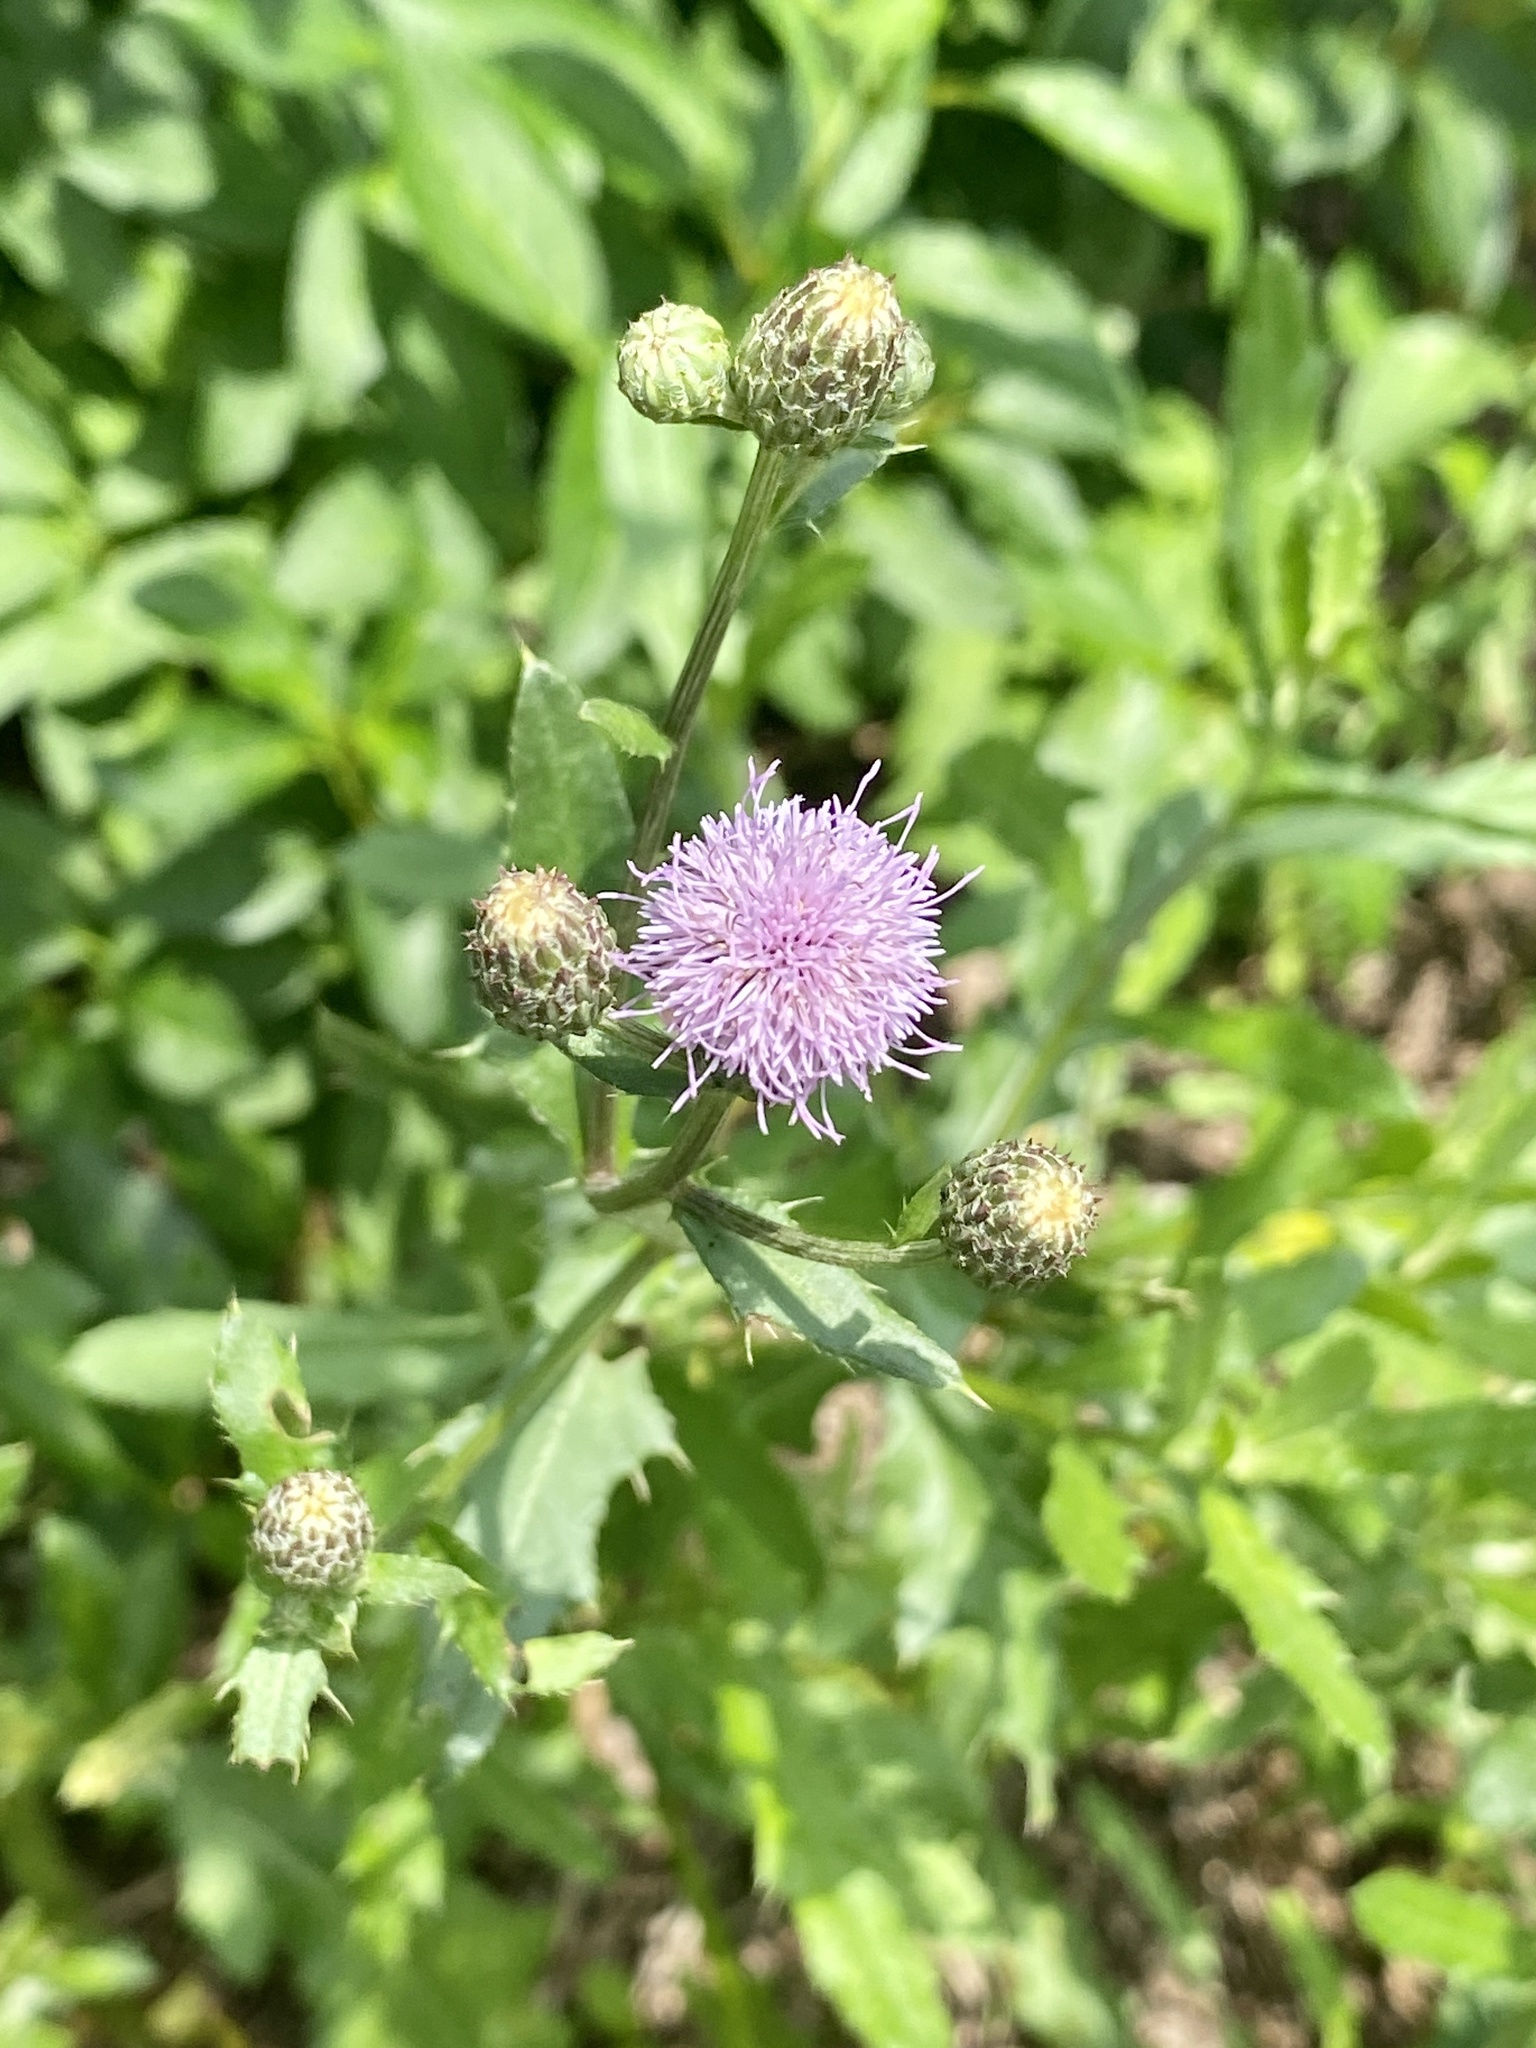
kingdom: Plantae
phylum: Tracheophyta
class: Magnoliopsida
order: Asterales
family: Asteraceae
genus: Cirsium
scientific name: Cirsium arvense
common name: Creeping thistle
